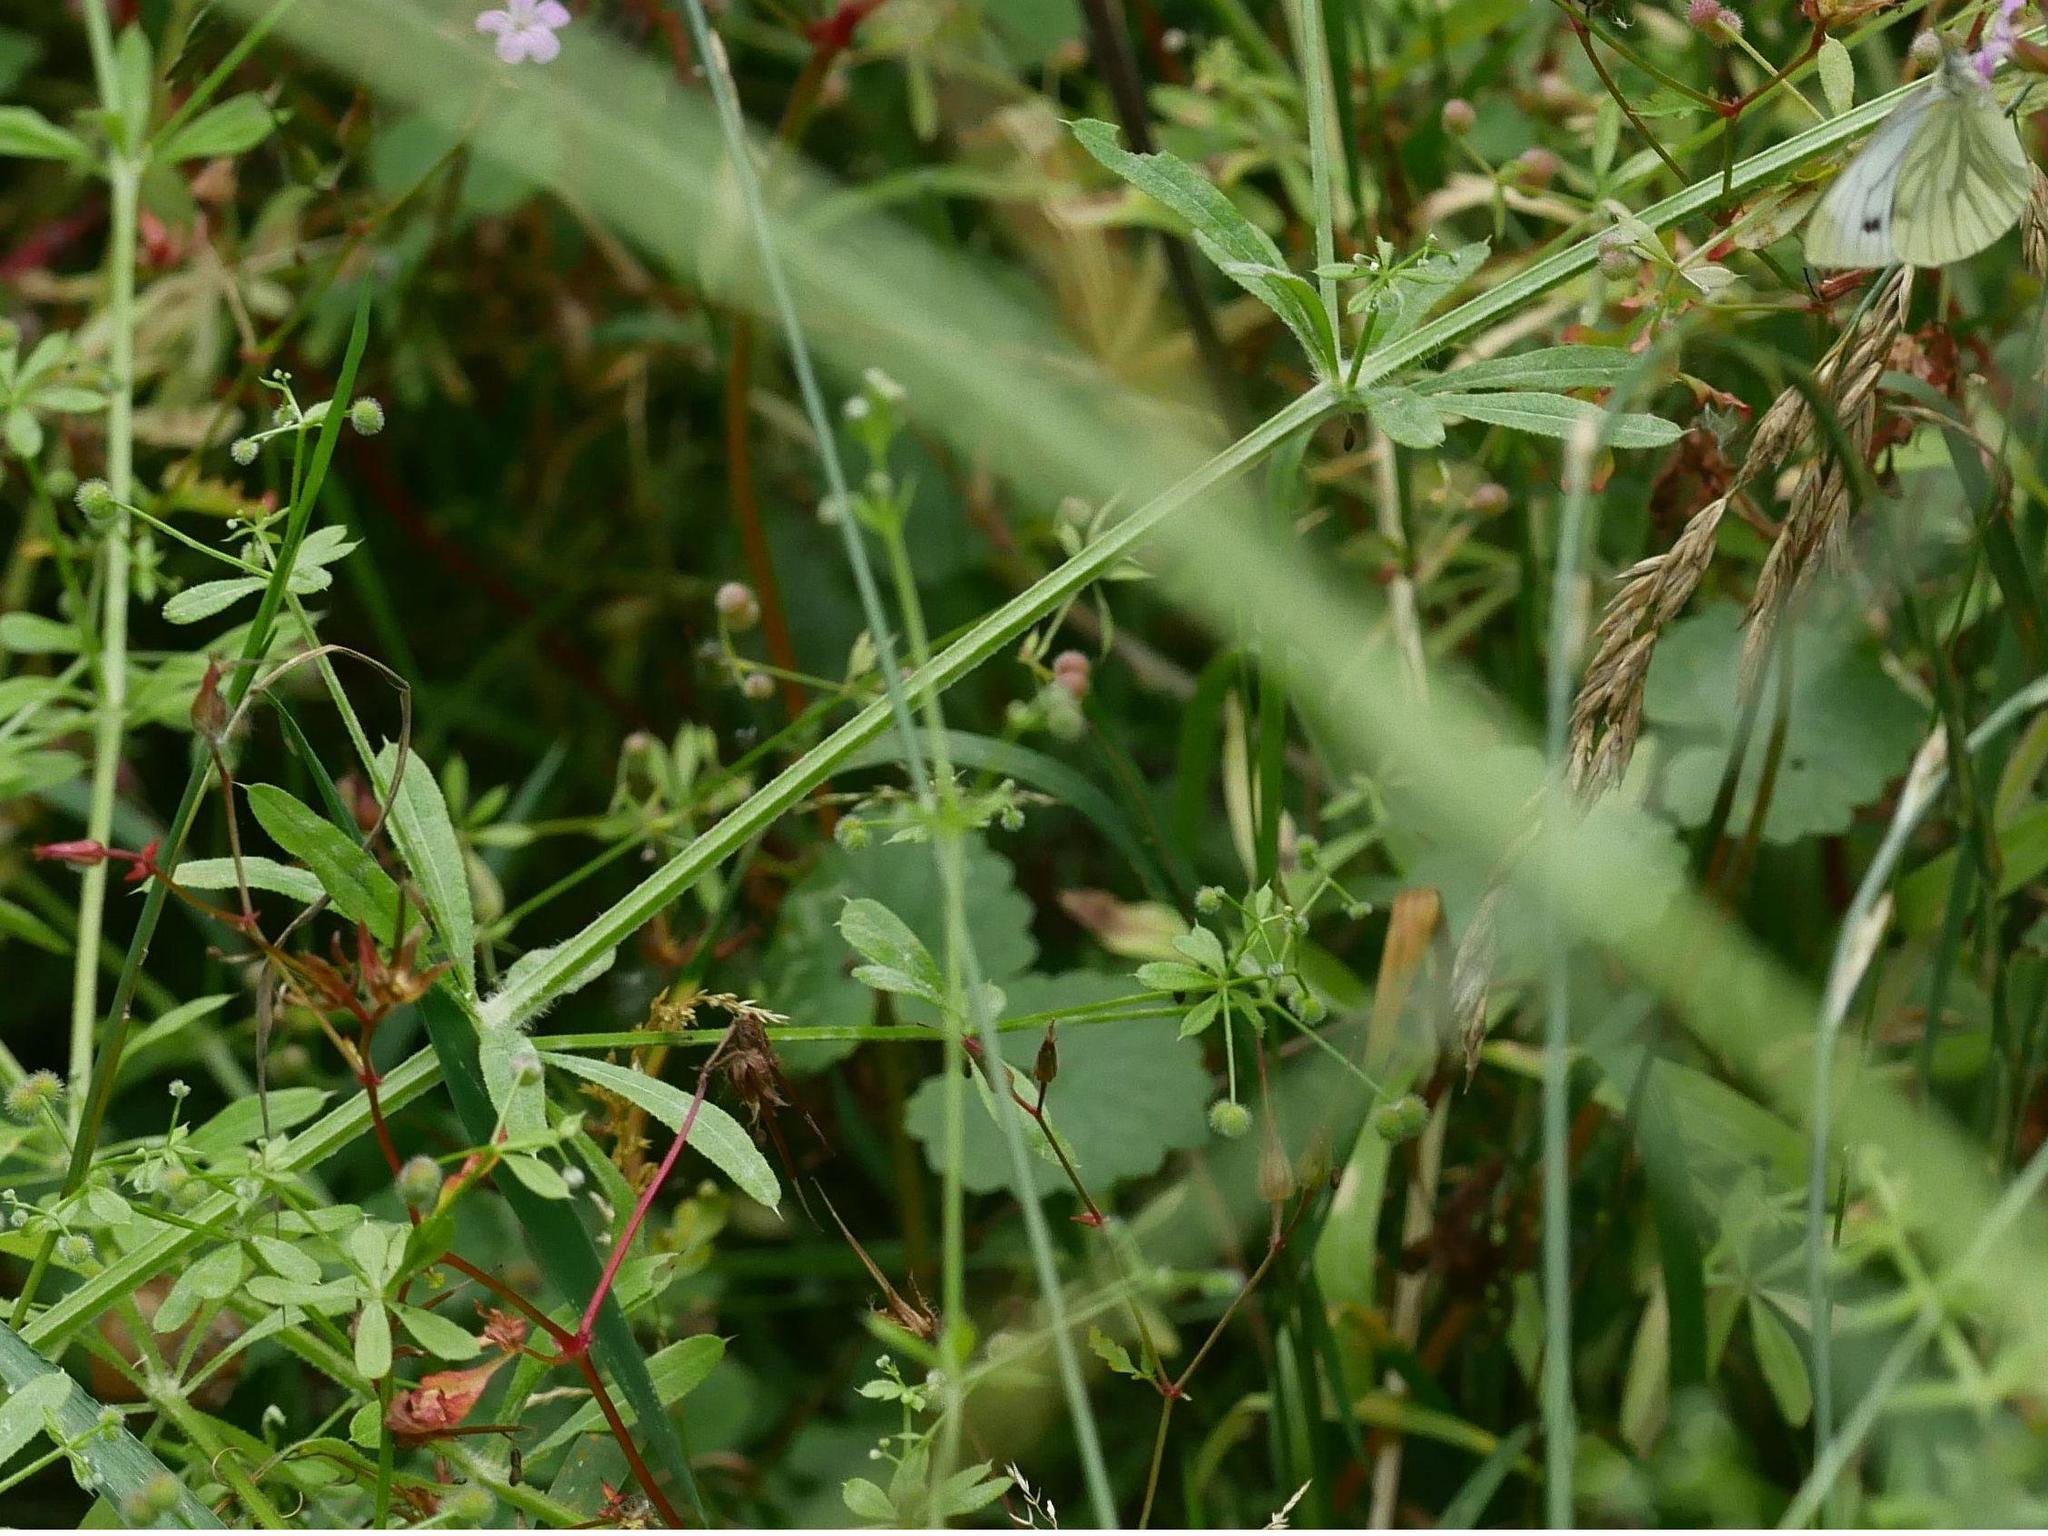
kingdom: Plantae
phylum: Tracheophyta
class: Magnoliopsida
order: Gentianales
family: Rubiaceae
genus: Galium
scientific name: Galium aparine
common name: Cleavers
